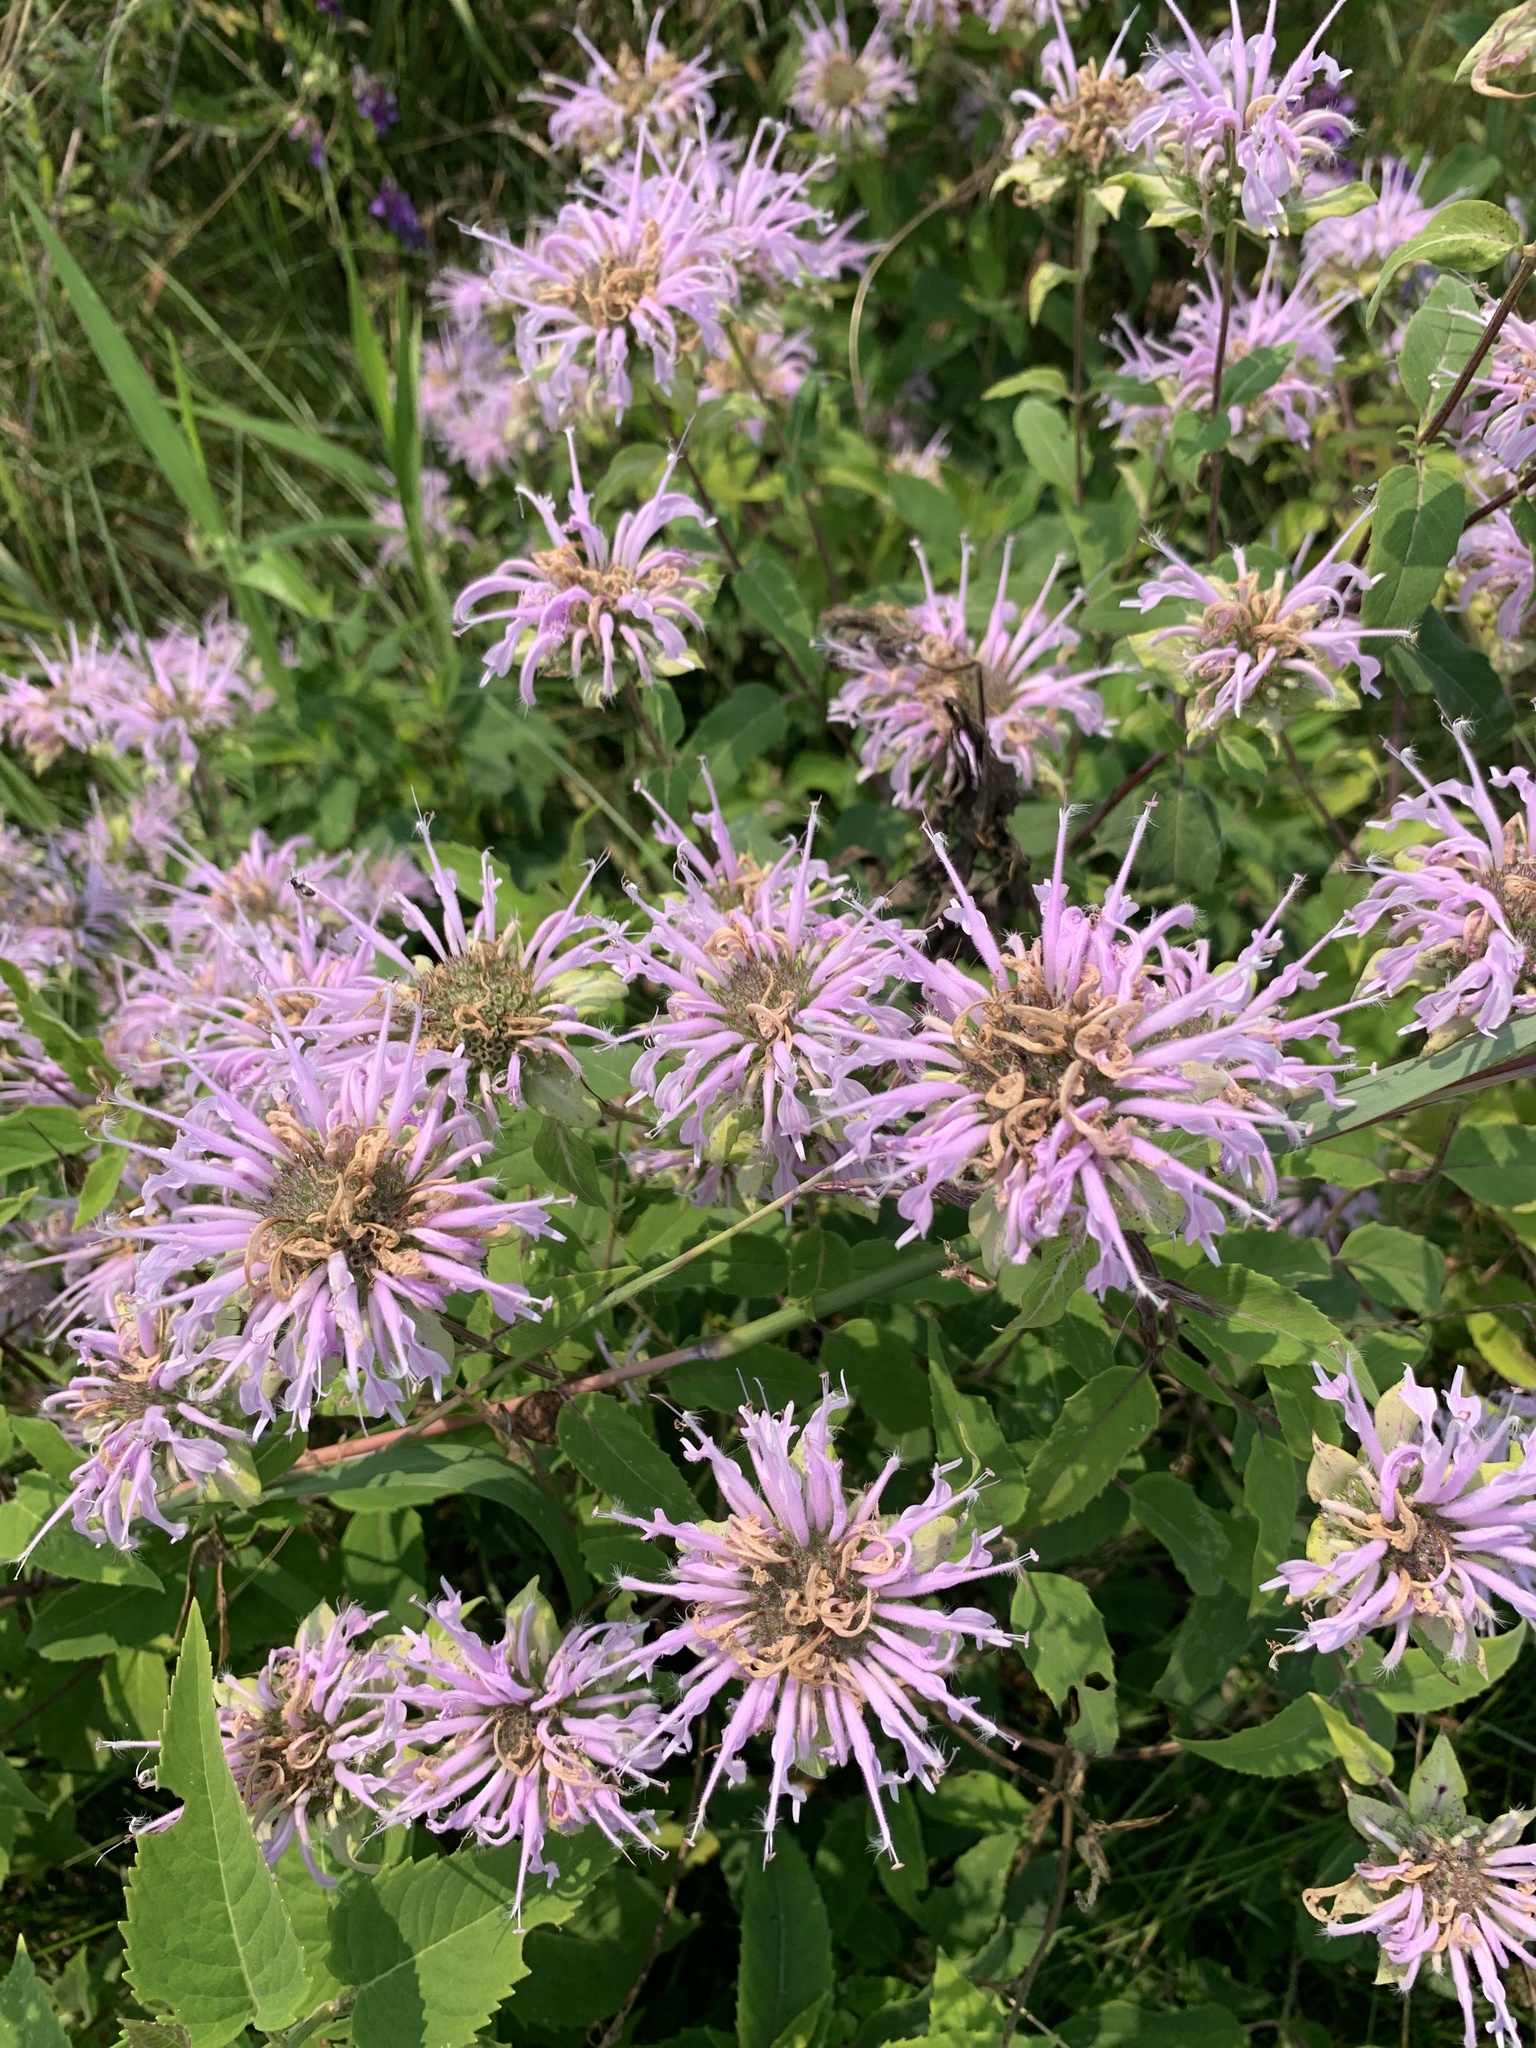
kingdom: Plantae
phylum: Tracheophyta
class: Magnoliopsida
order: Lamiales
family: Lamiaceae
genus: Monarda
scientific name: Monarda fistulosa
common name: Purple beebalm
